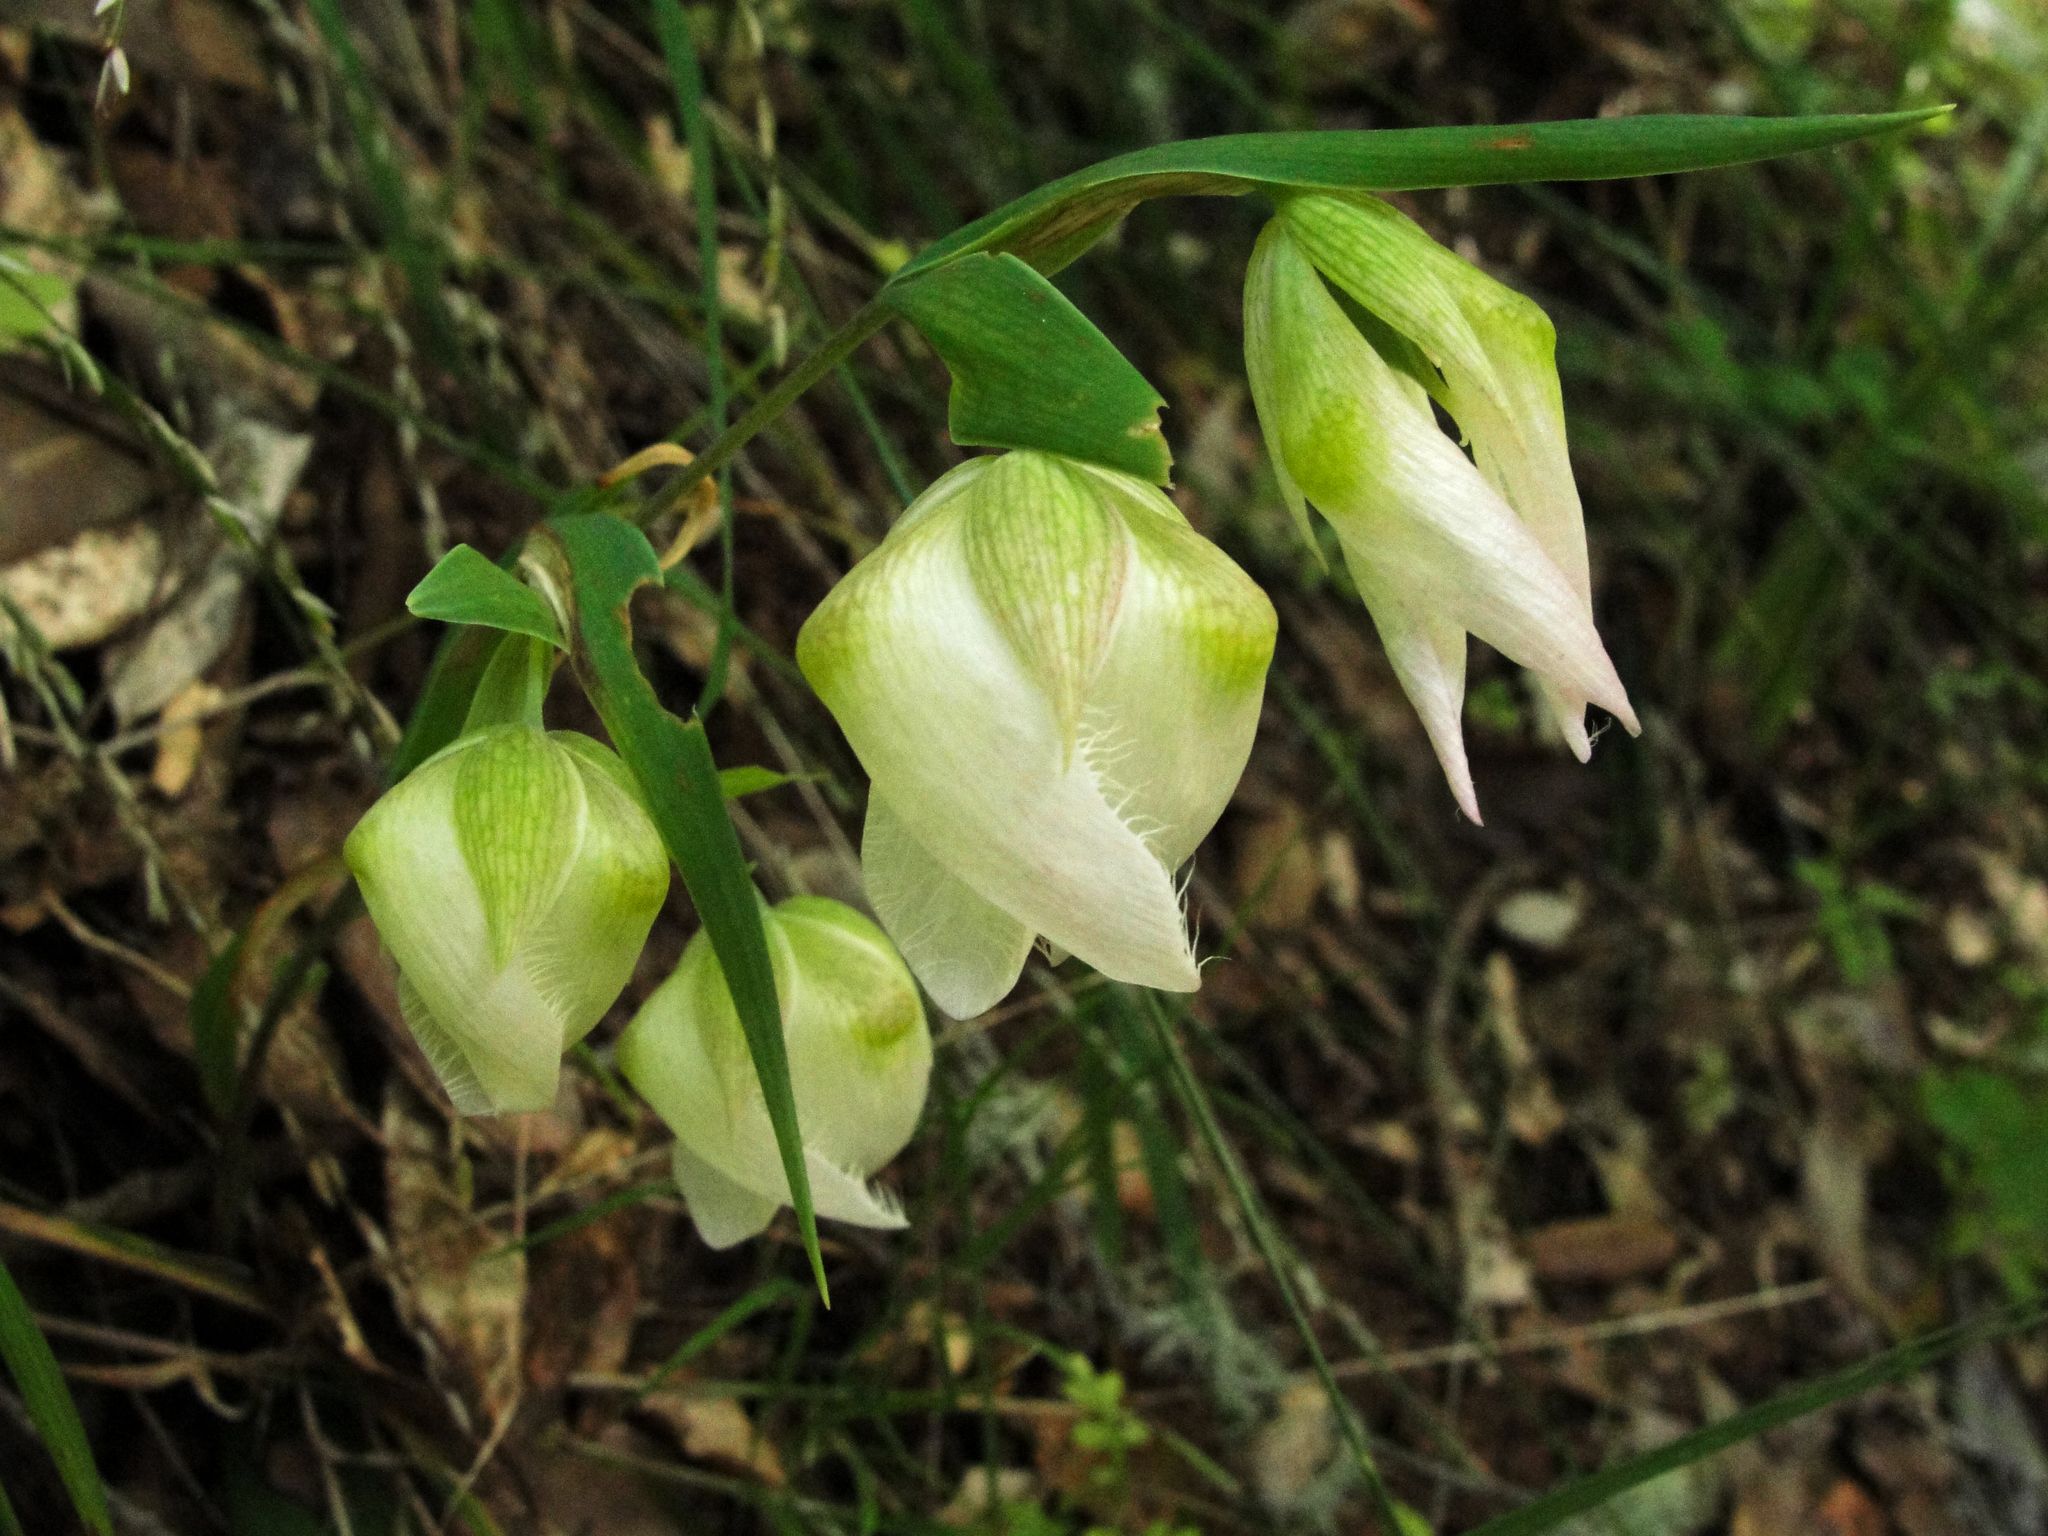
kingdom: Plantae
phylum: Tracheophyta
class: Liliopsida
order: Liliales
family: Liliaceae
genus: Calochortus
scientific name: Calochortus albus
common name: Fairy-lantern
